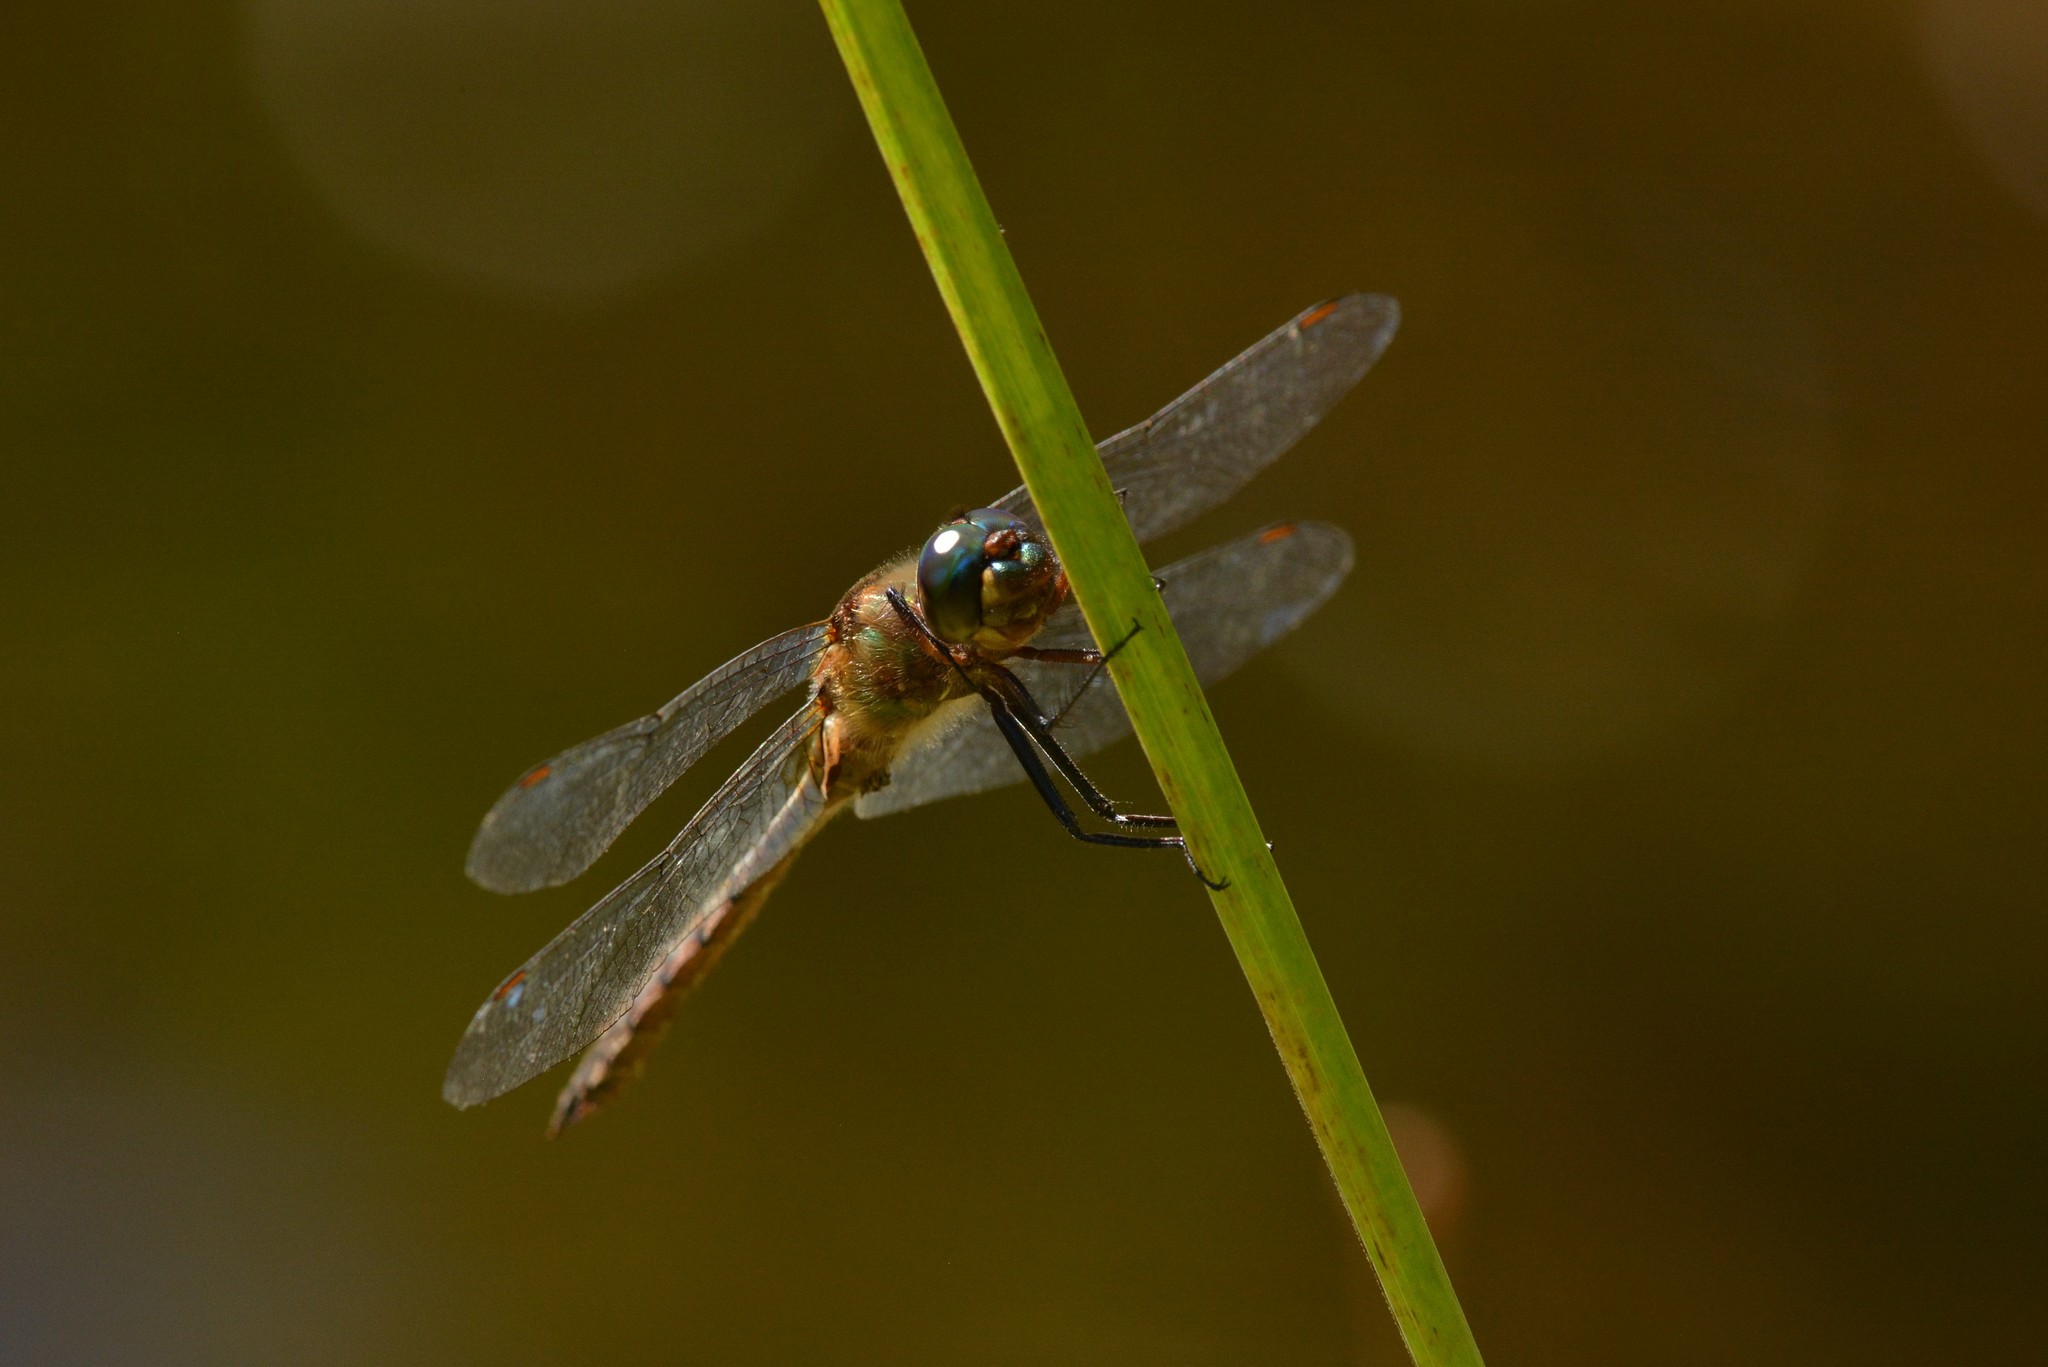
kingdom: Animalia
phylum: Arthropoda
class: Insecta
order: Odonata
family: Corduliidae
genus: Procordulia
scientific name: Procordulia smithii
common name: Ranger dragonfly
